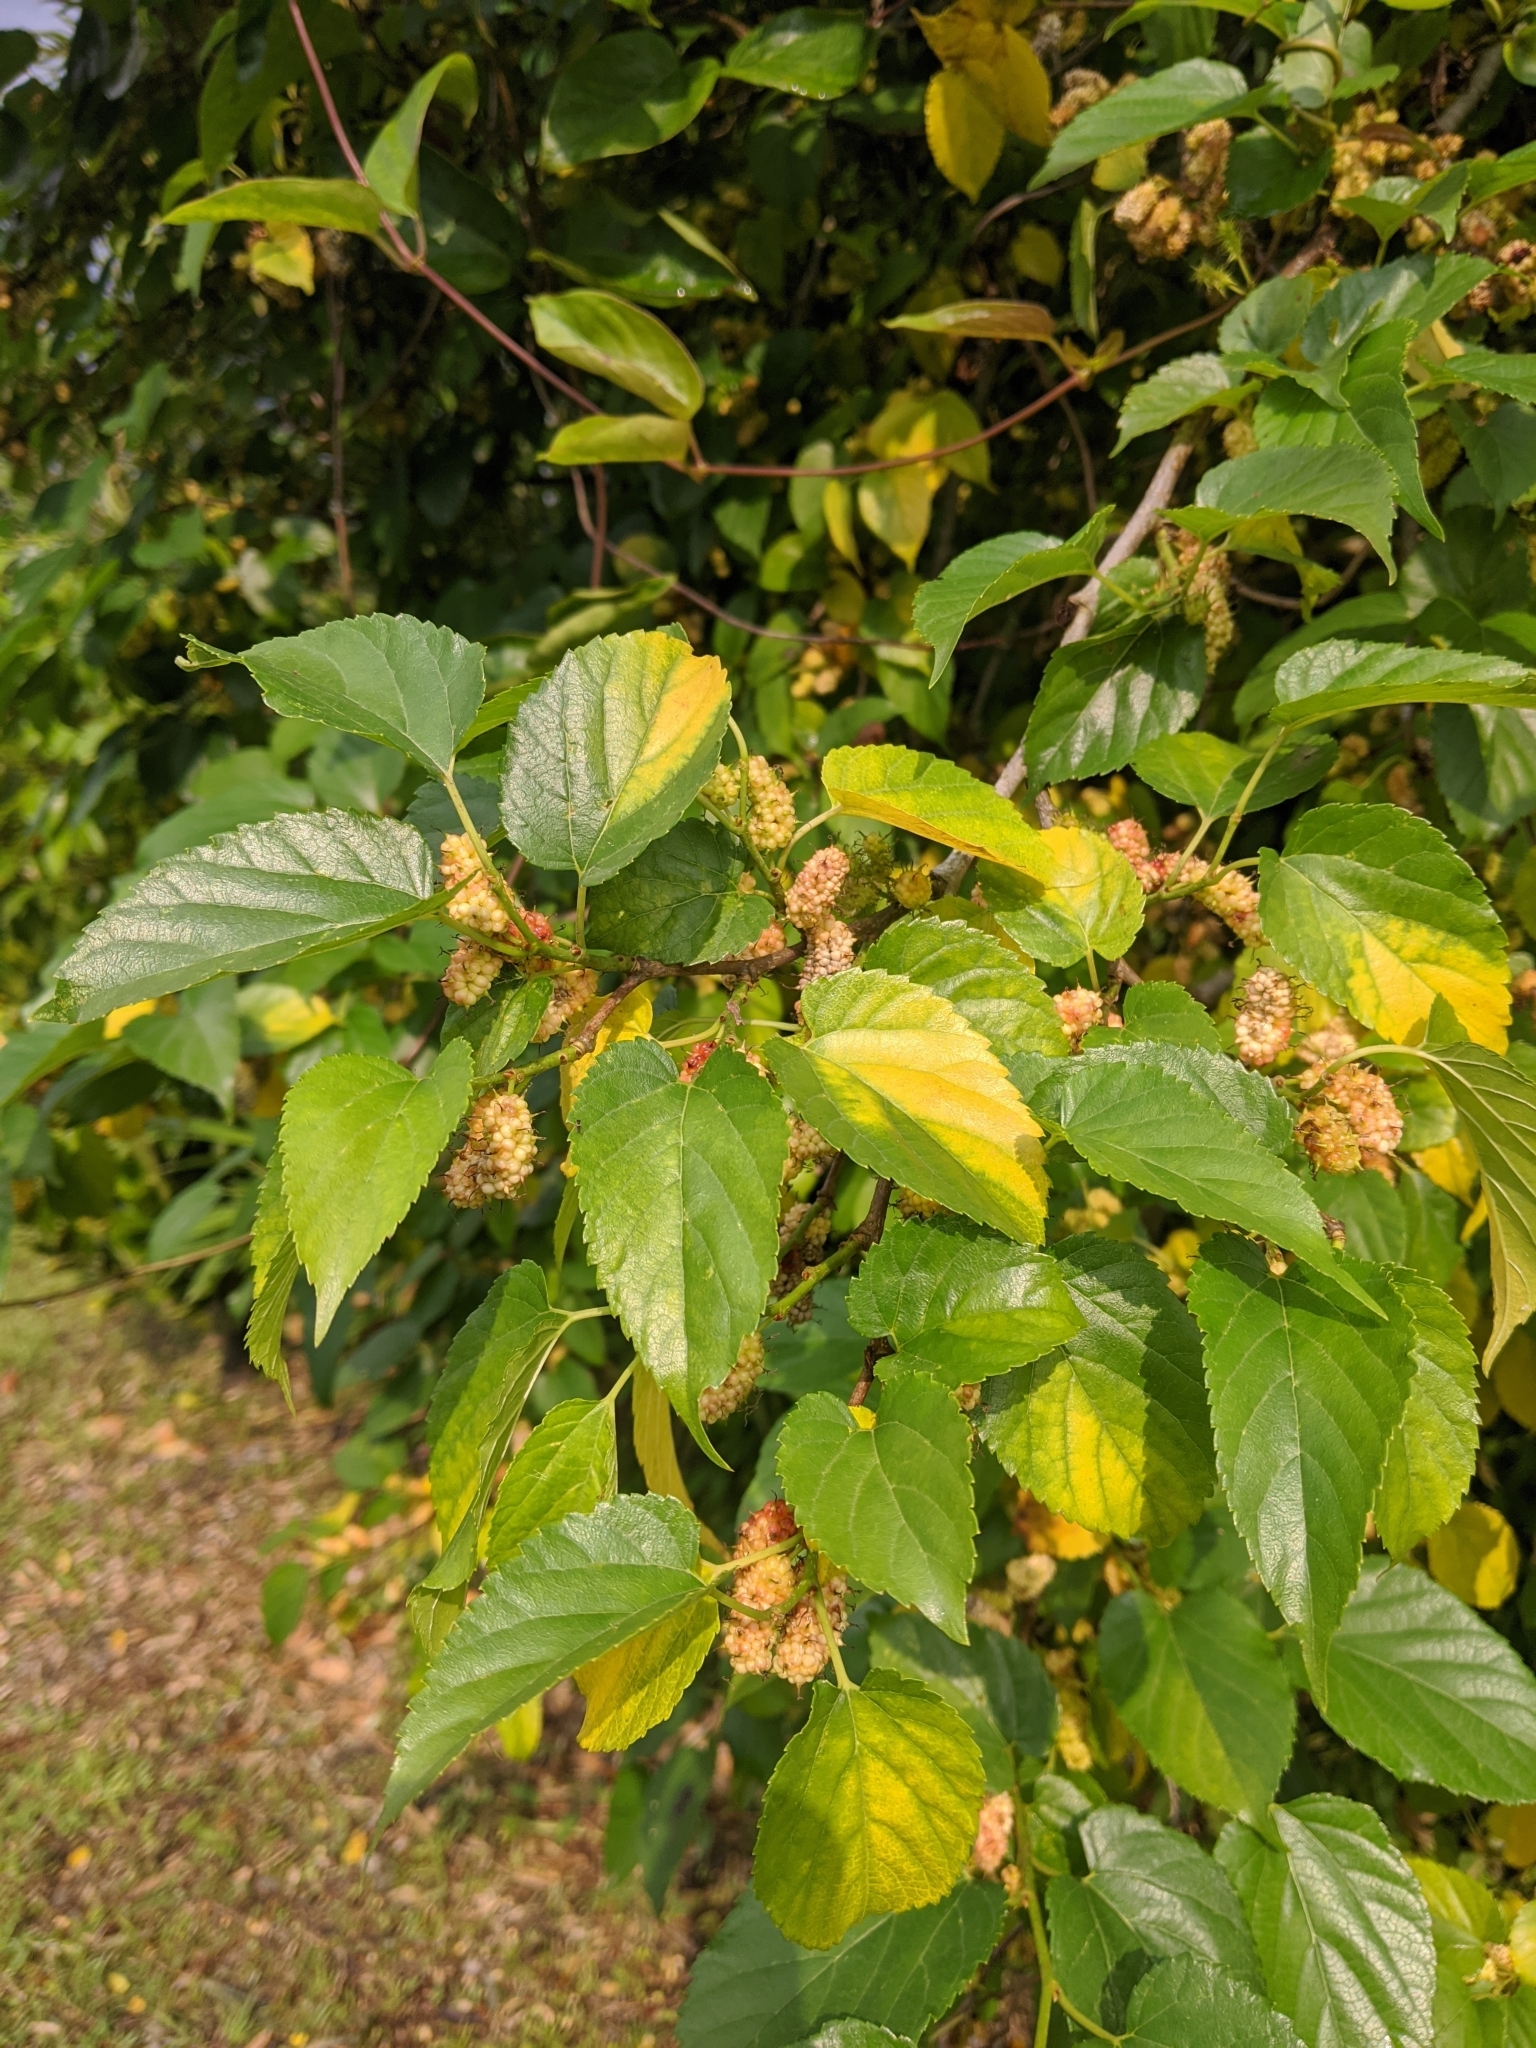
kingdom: Plantae
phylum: Tracheophyta
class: Magnoliopsida
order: Rosales
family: Moraceae
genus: Morus
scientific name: Morus indica
